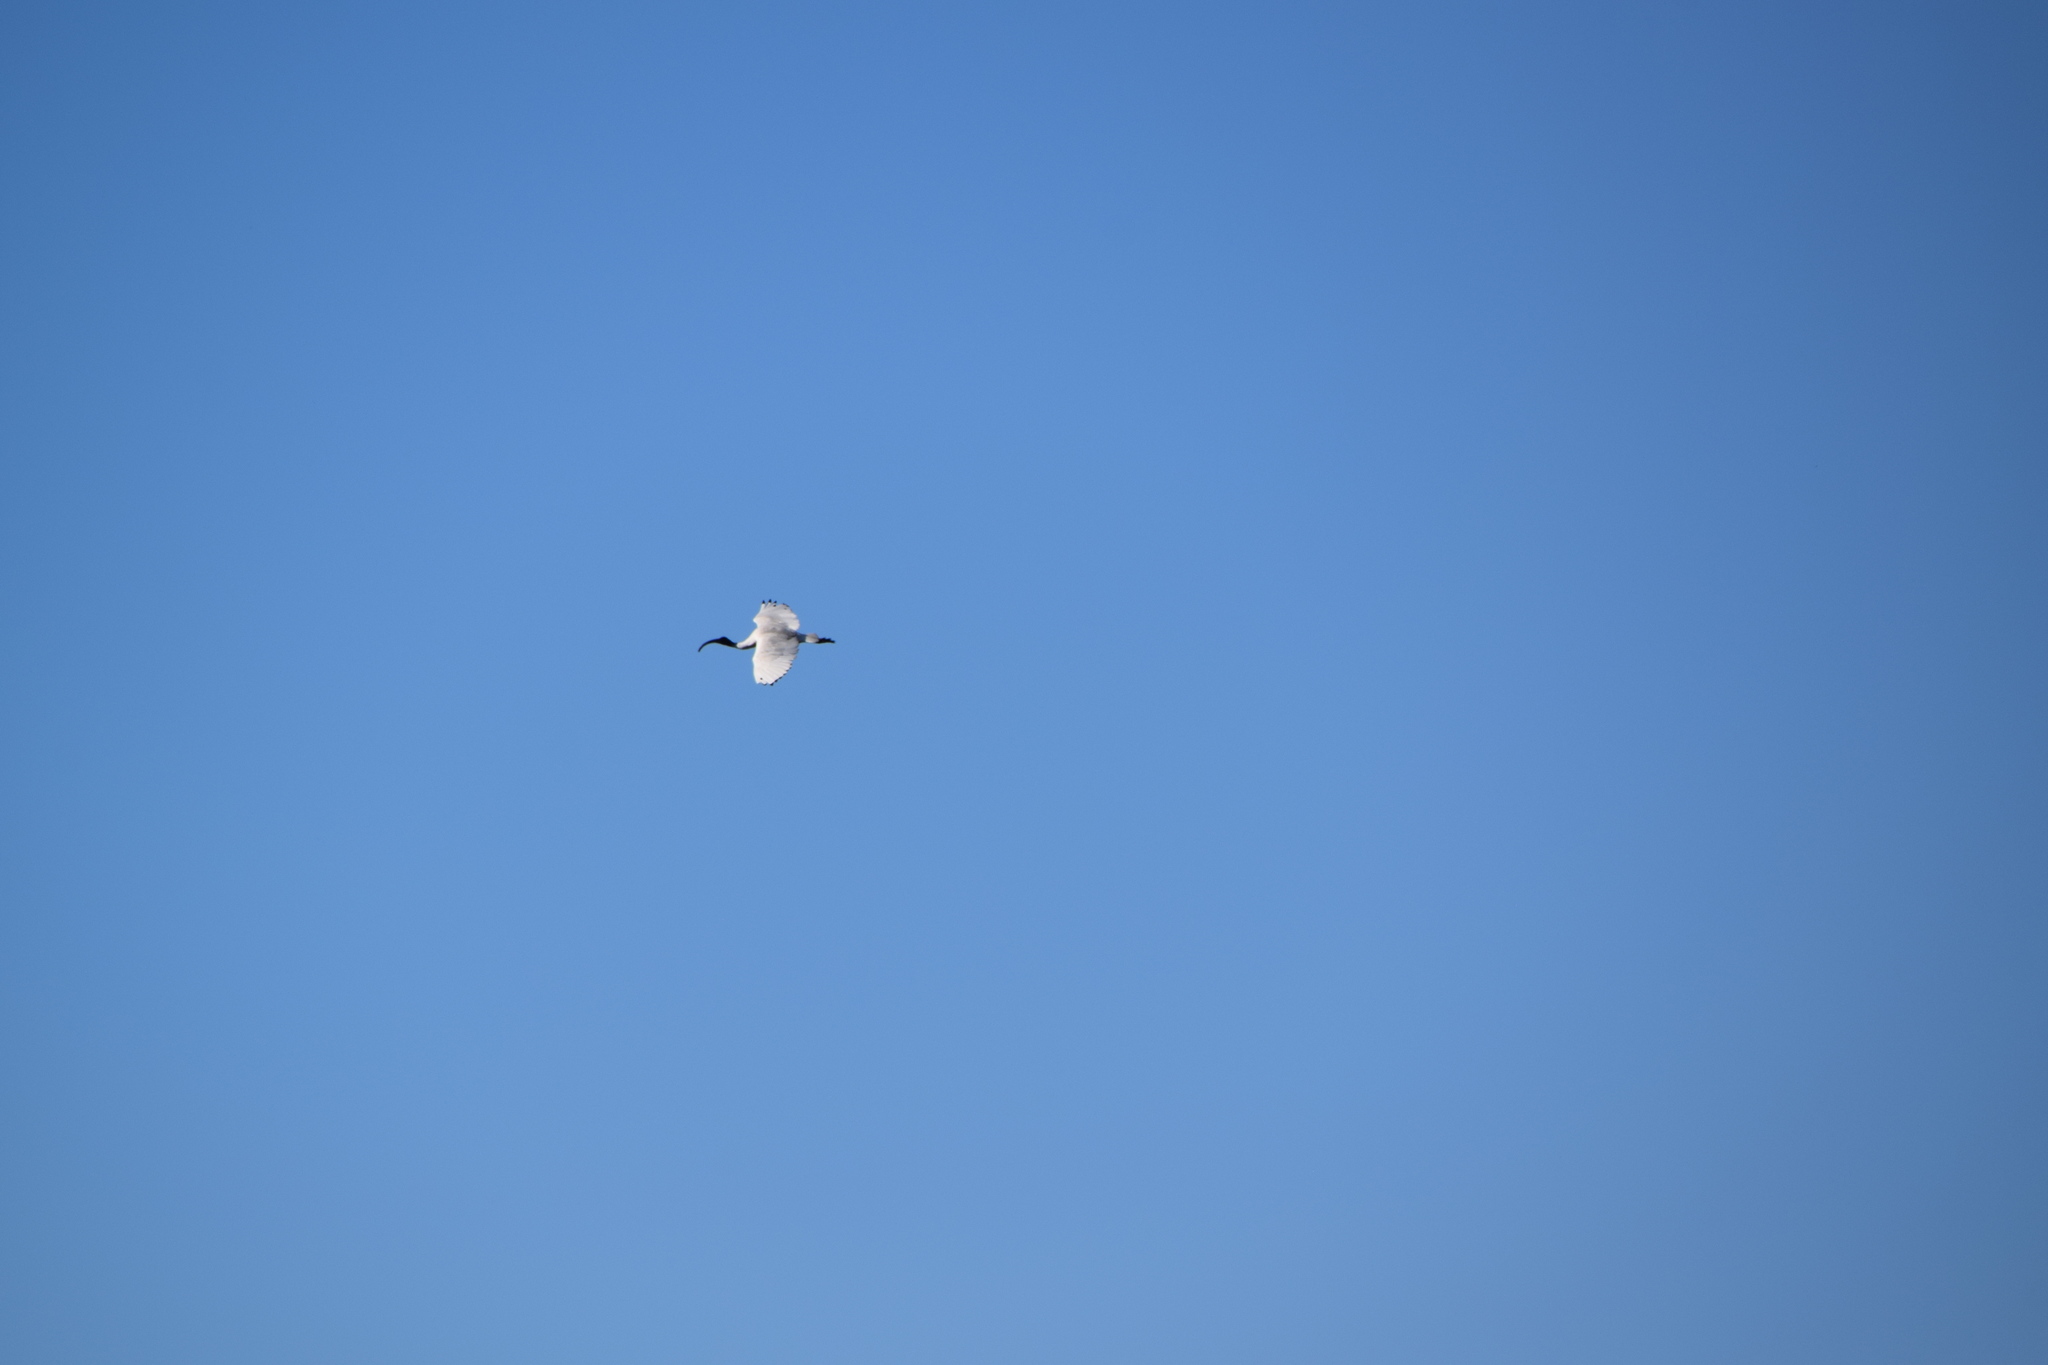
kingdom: Animalia
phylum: Chordata
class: Aves
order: Pelecaniformes
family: Threskiornithidae
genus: Threskiornis
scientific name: Threskiornis molucca
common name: Australian white ibis
